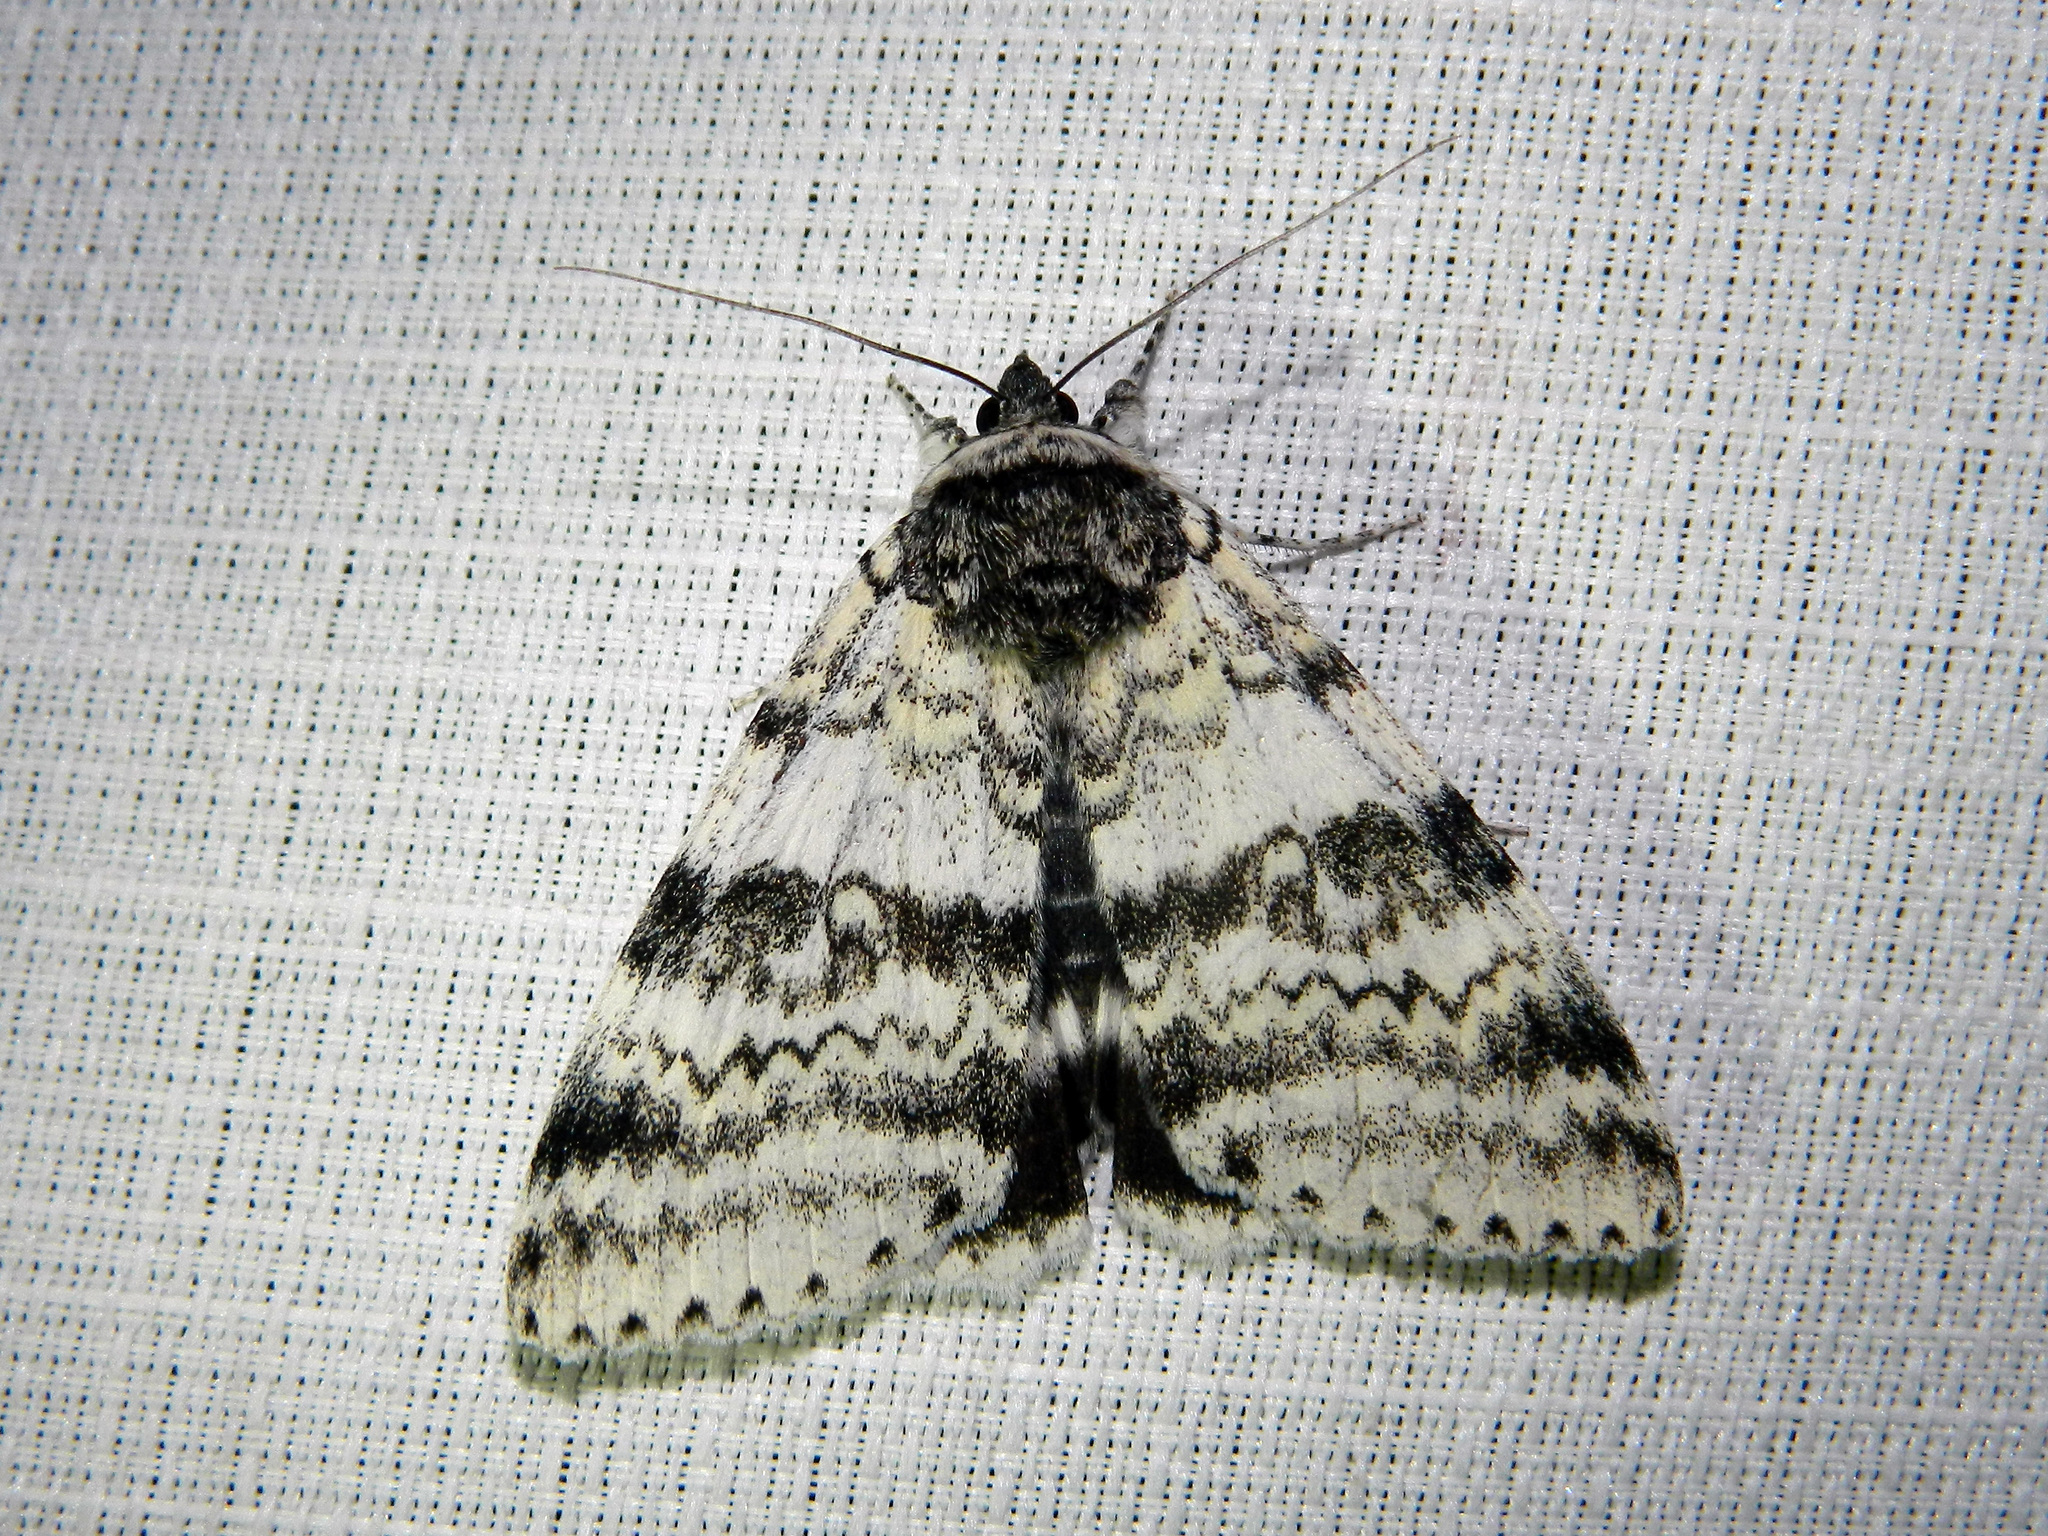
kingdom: Animalia
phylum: Arthropoda
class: Insecta
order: Lepidoptera
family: Erebidae
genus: Catocala
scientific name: Catocala relicta
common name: White underwing
